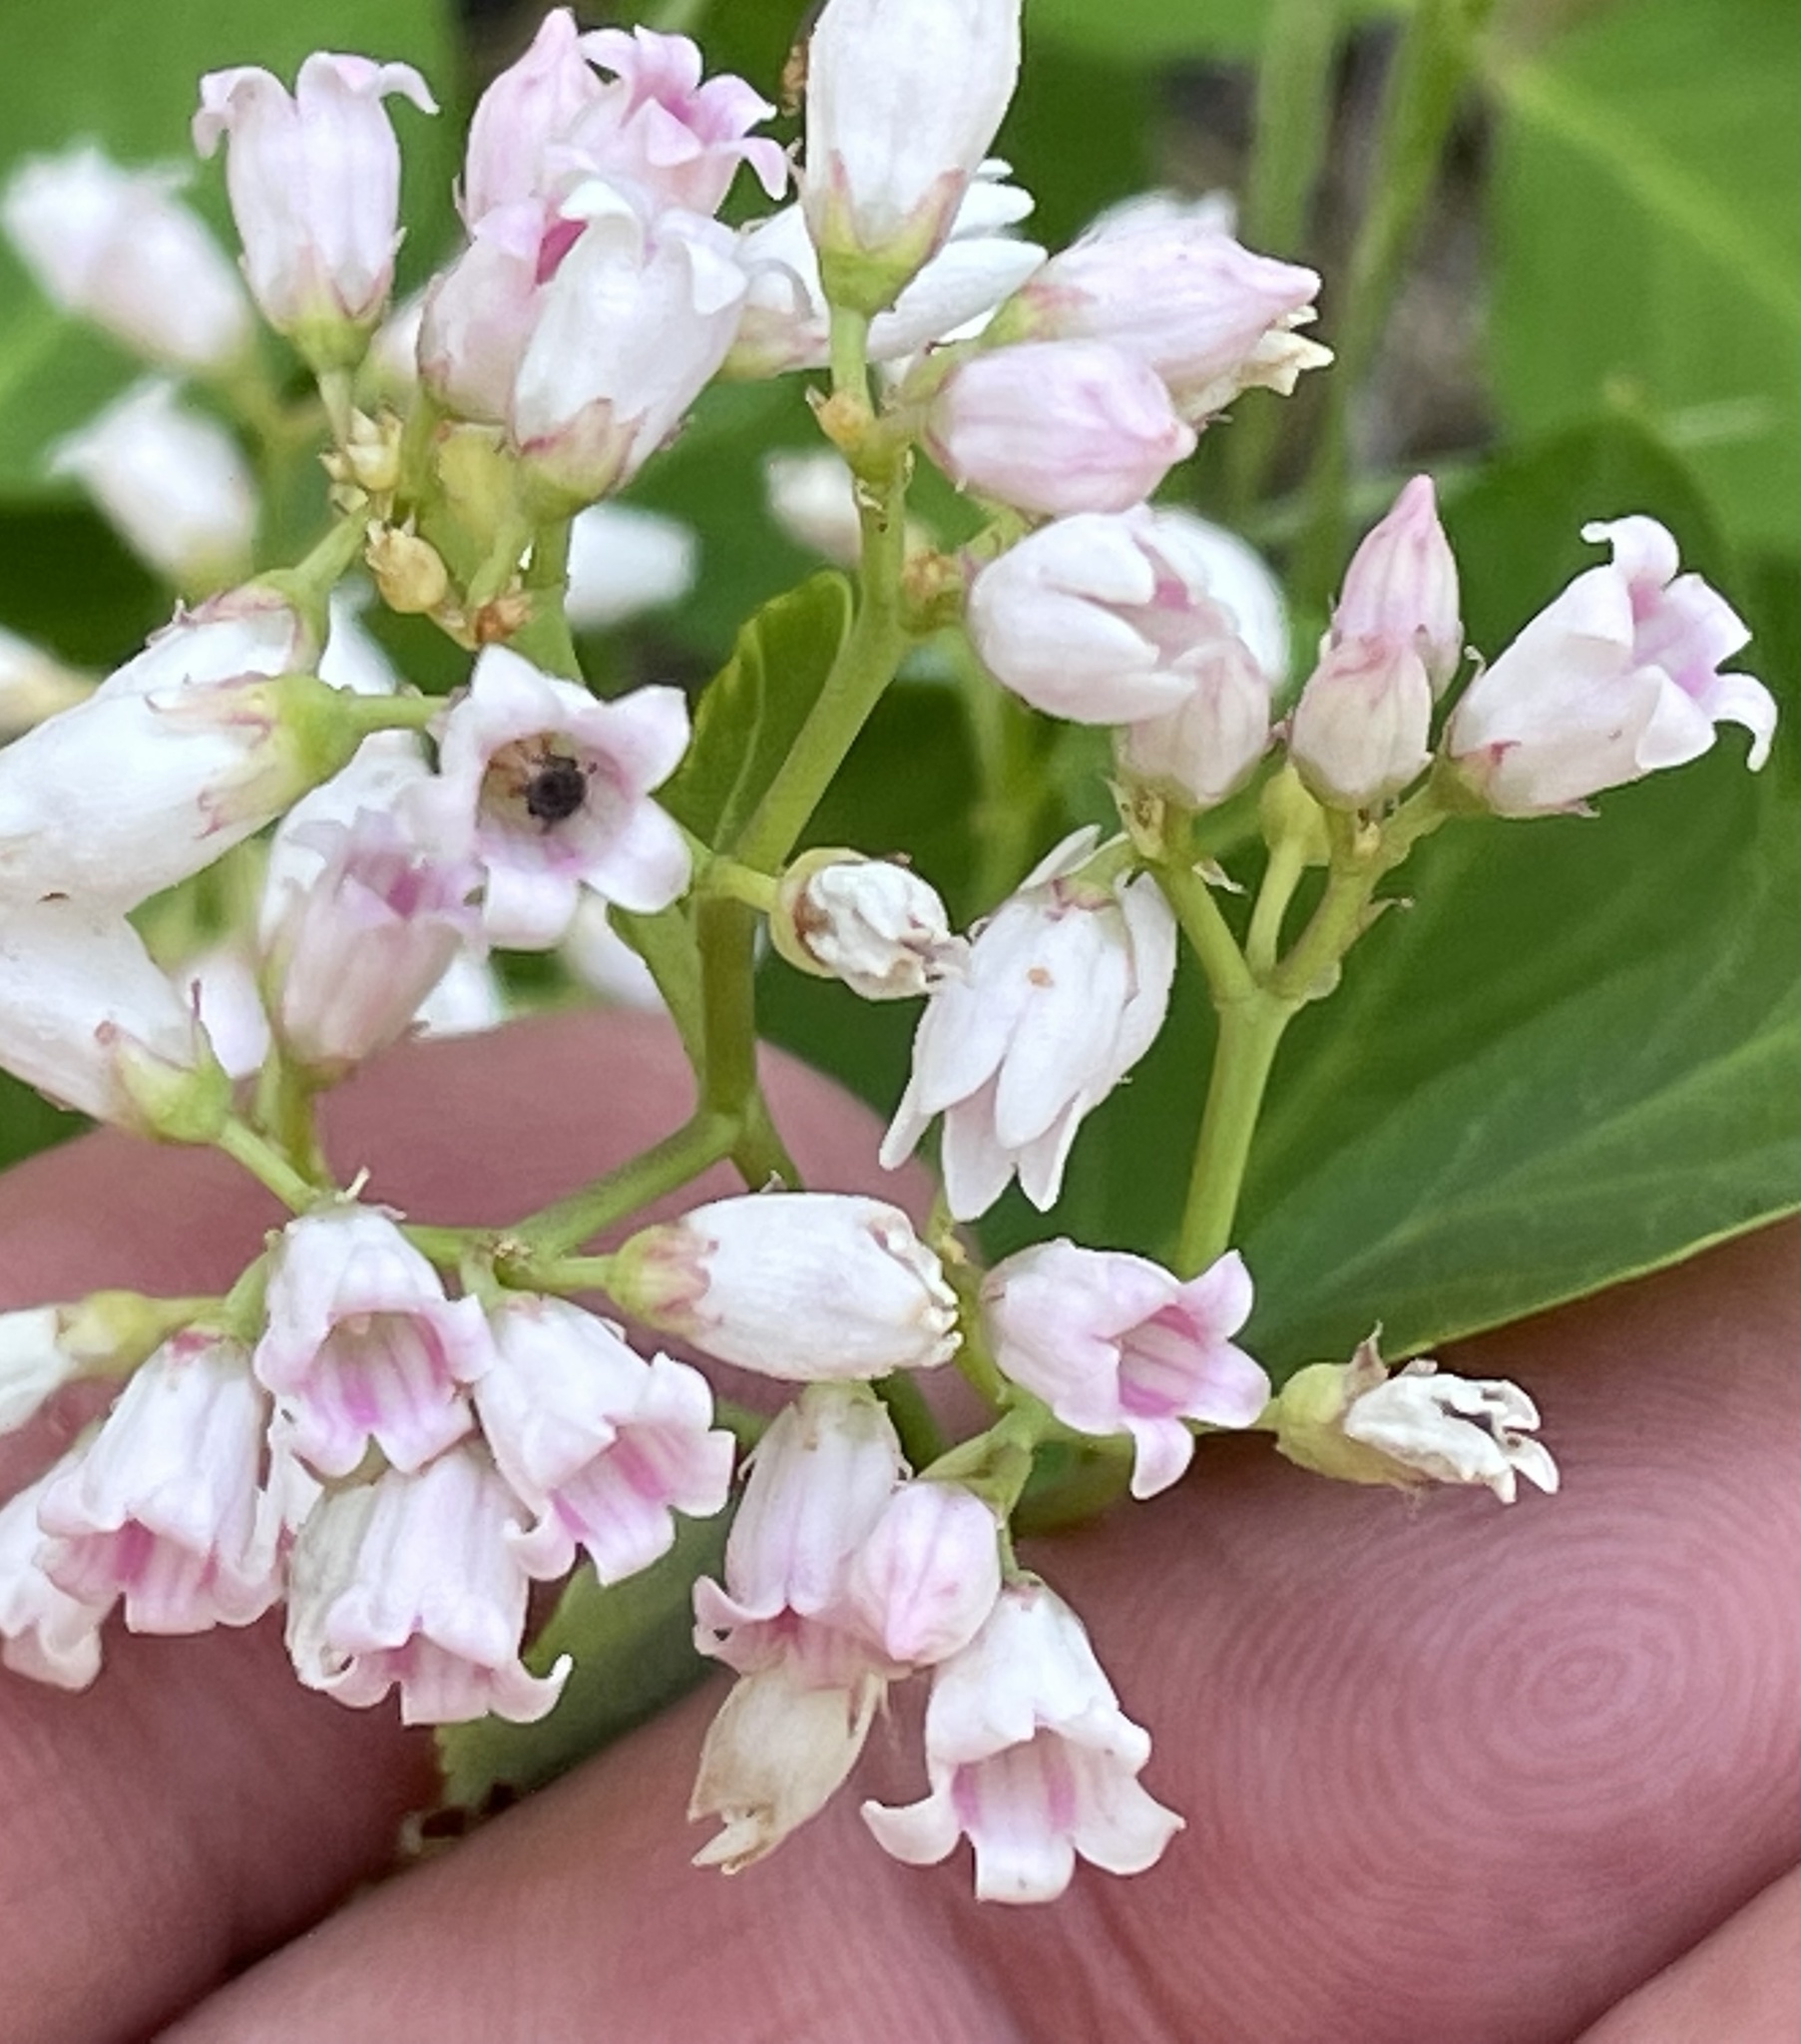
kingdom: Plantae
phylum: Tracheophyta
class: Magnoliopsida
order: Gentianales
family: Apocynaceae
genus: Apocynum
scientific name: Apocynum androsaemifolium
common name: Spreading dogbane
